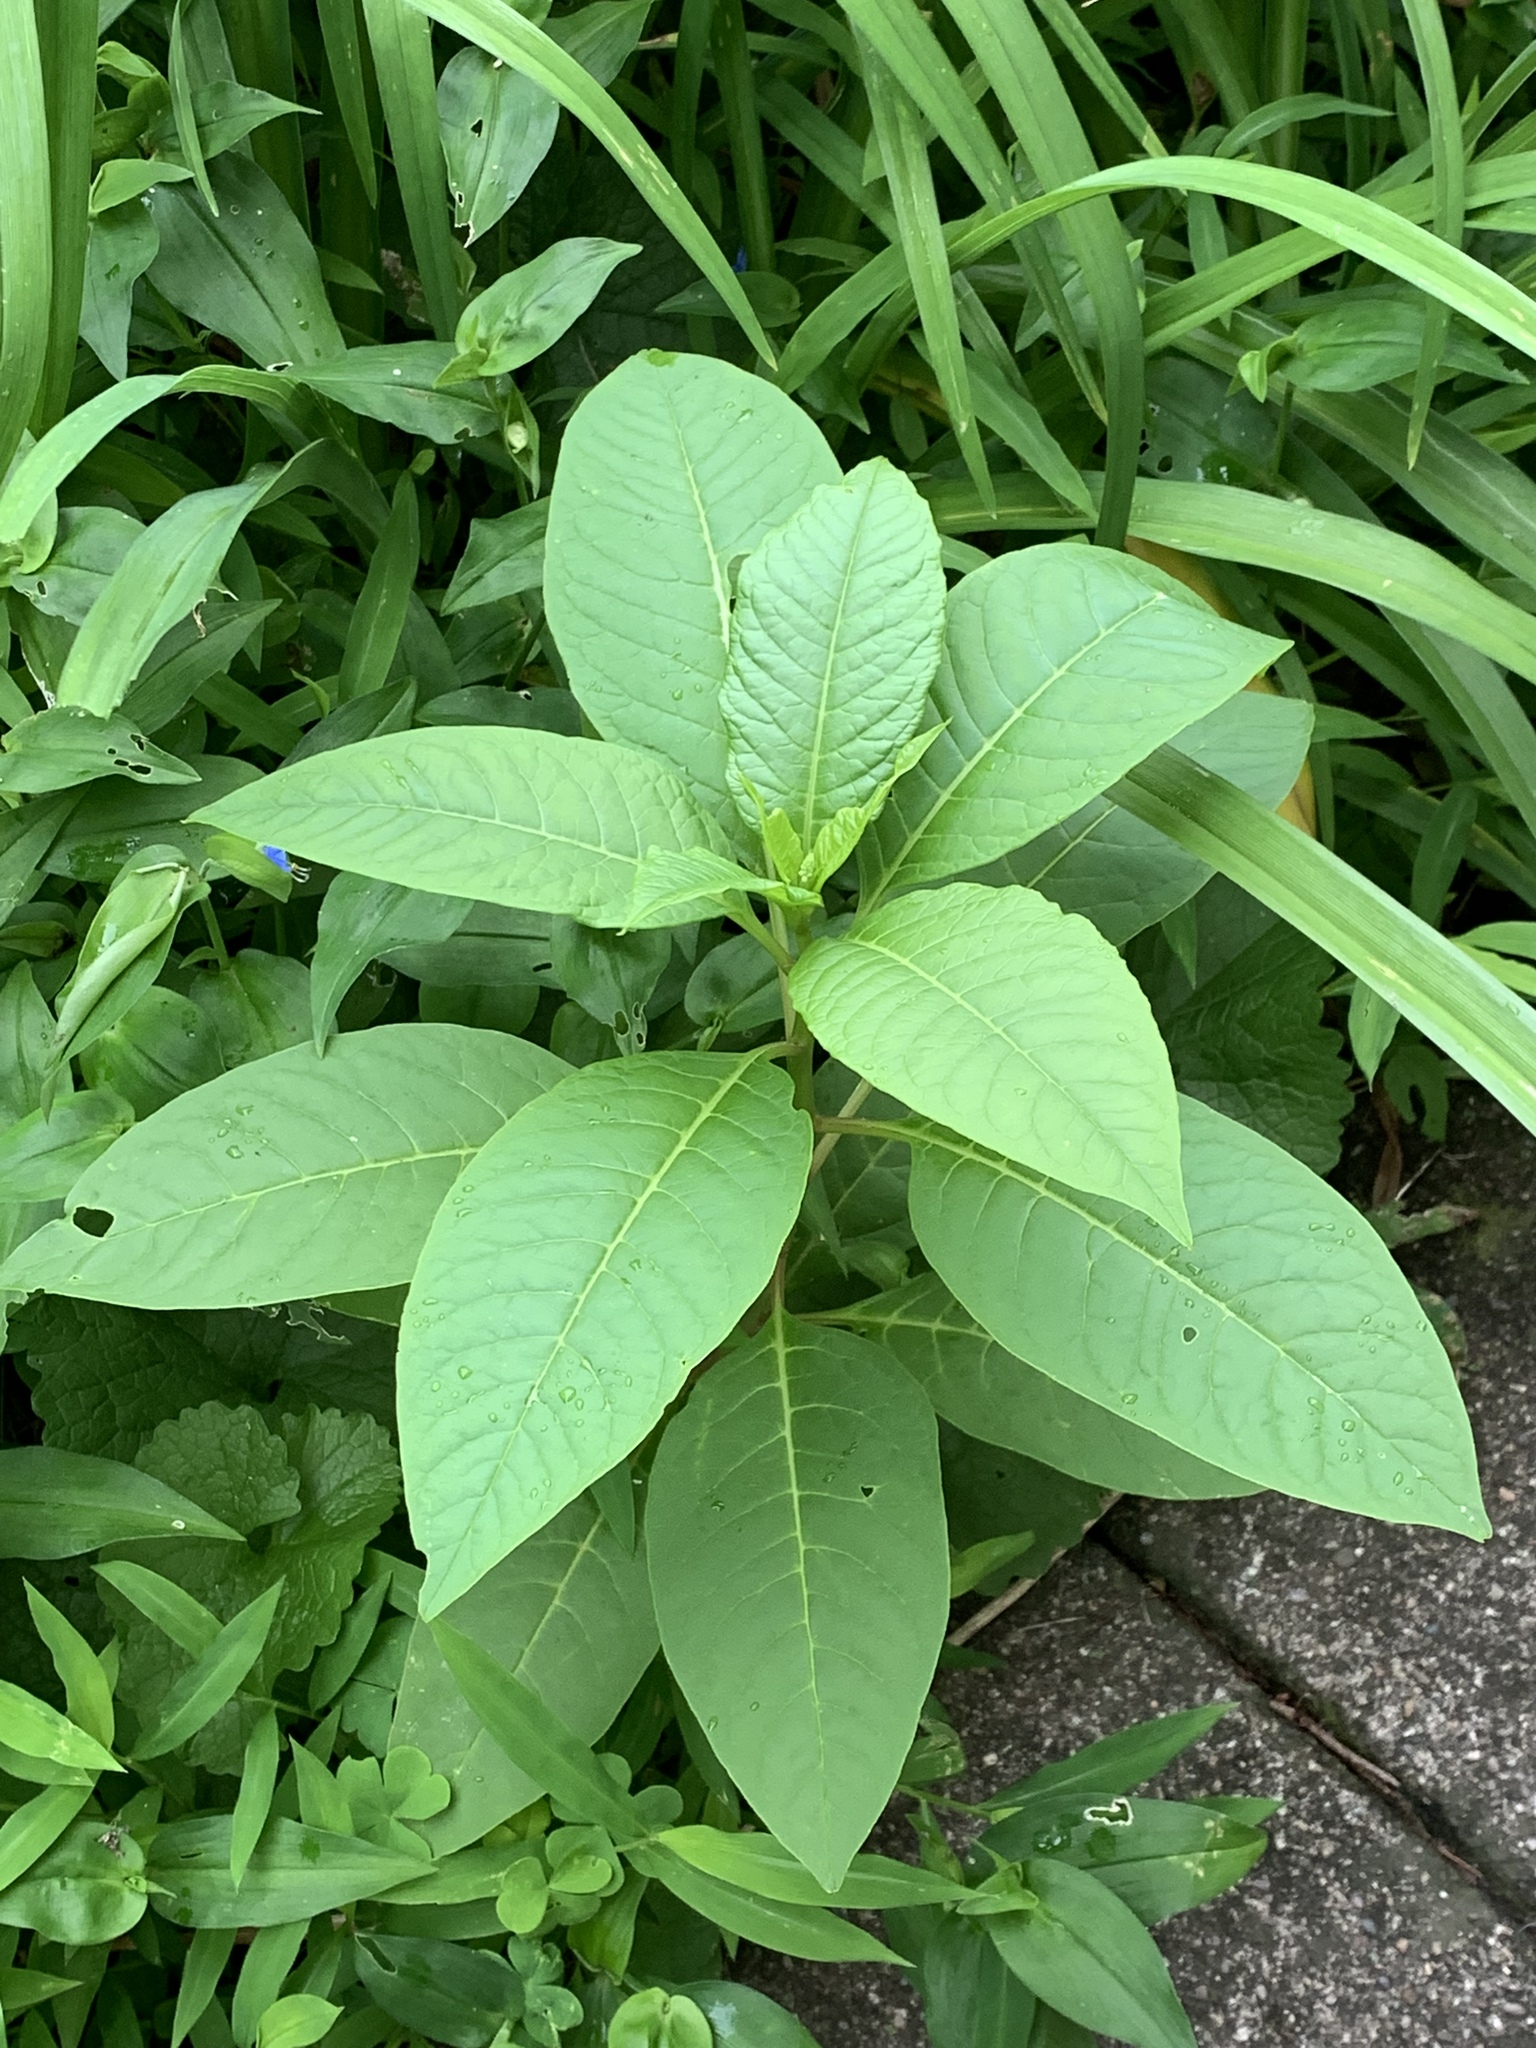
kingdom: Plantae
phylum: Tracheophyta
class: Magnoliopsida
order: Caryophyllales
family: Phytolaccaceae
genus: Phytolacca
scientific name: Phytolacca americana
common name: American pokeweed
